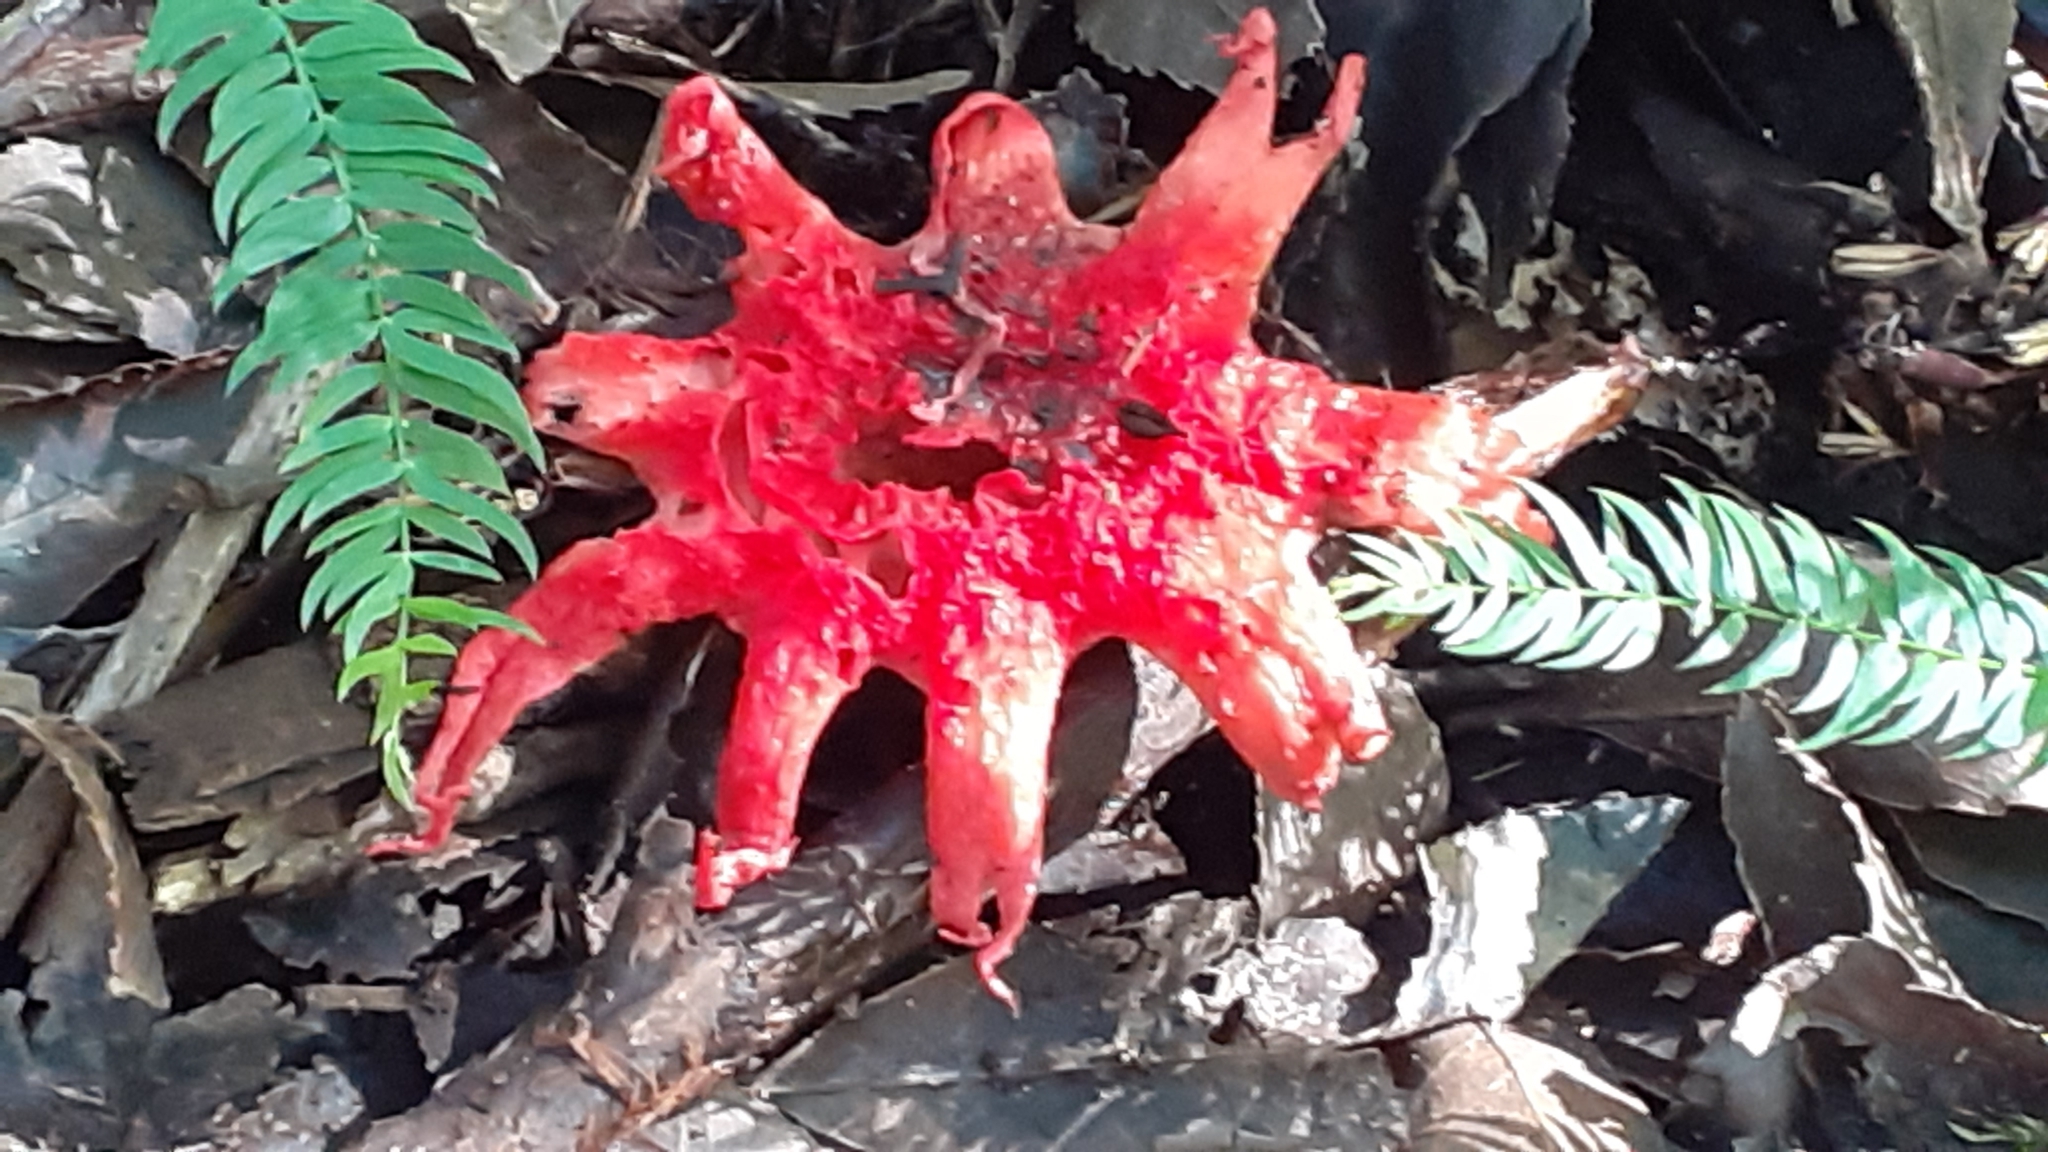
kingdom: Fungi
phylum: Basidiomycota
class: Agaricomycetes
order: Phallales
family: Phallaceae
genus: Aseroe
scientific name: Aseroe rubra
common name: Starfish fungus
